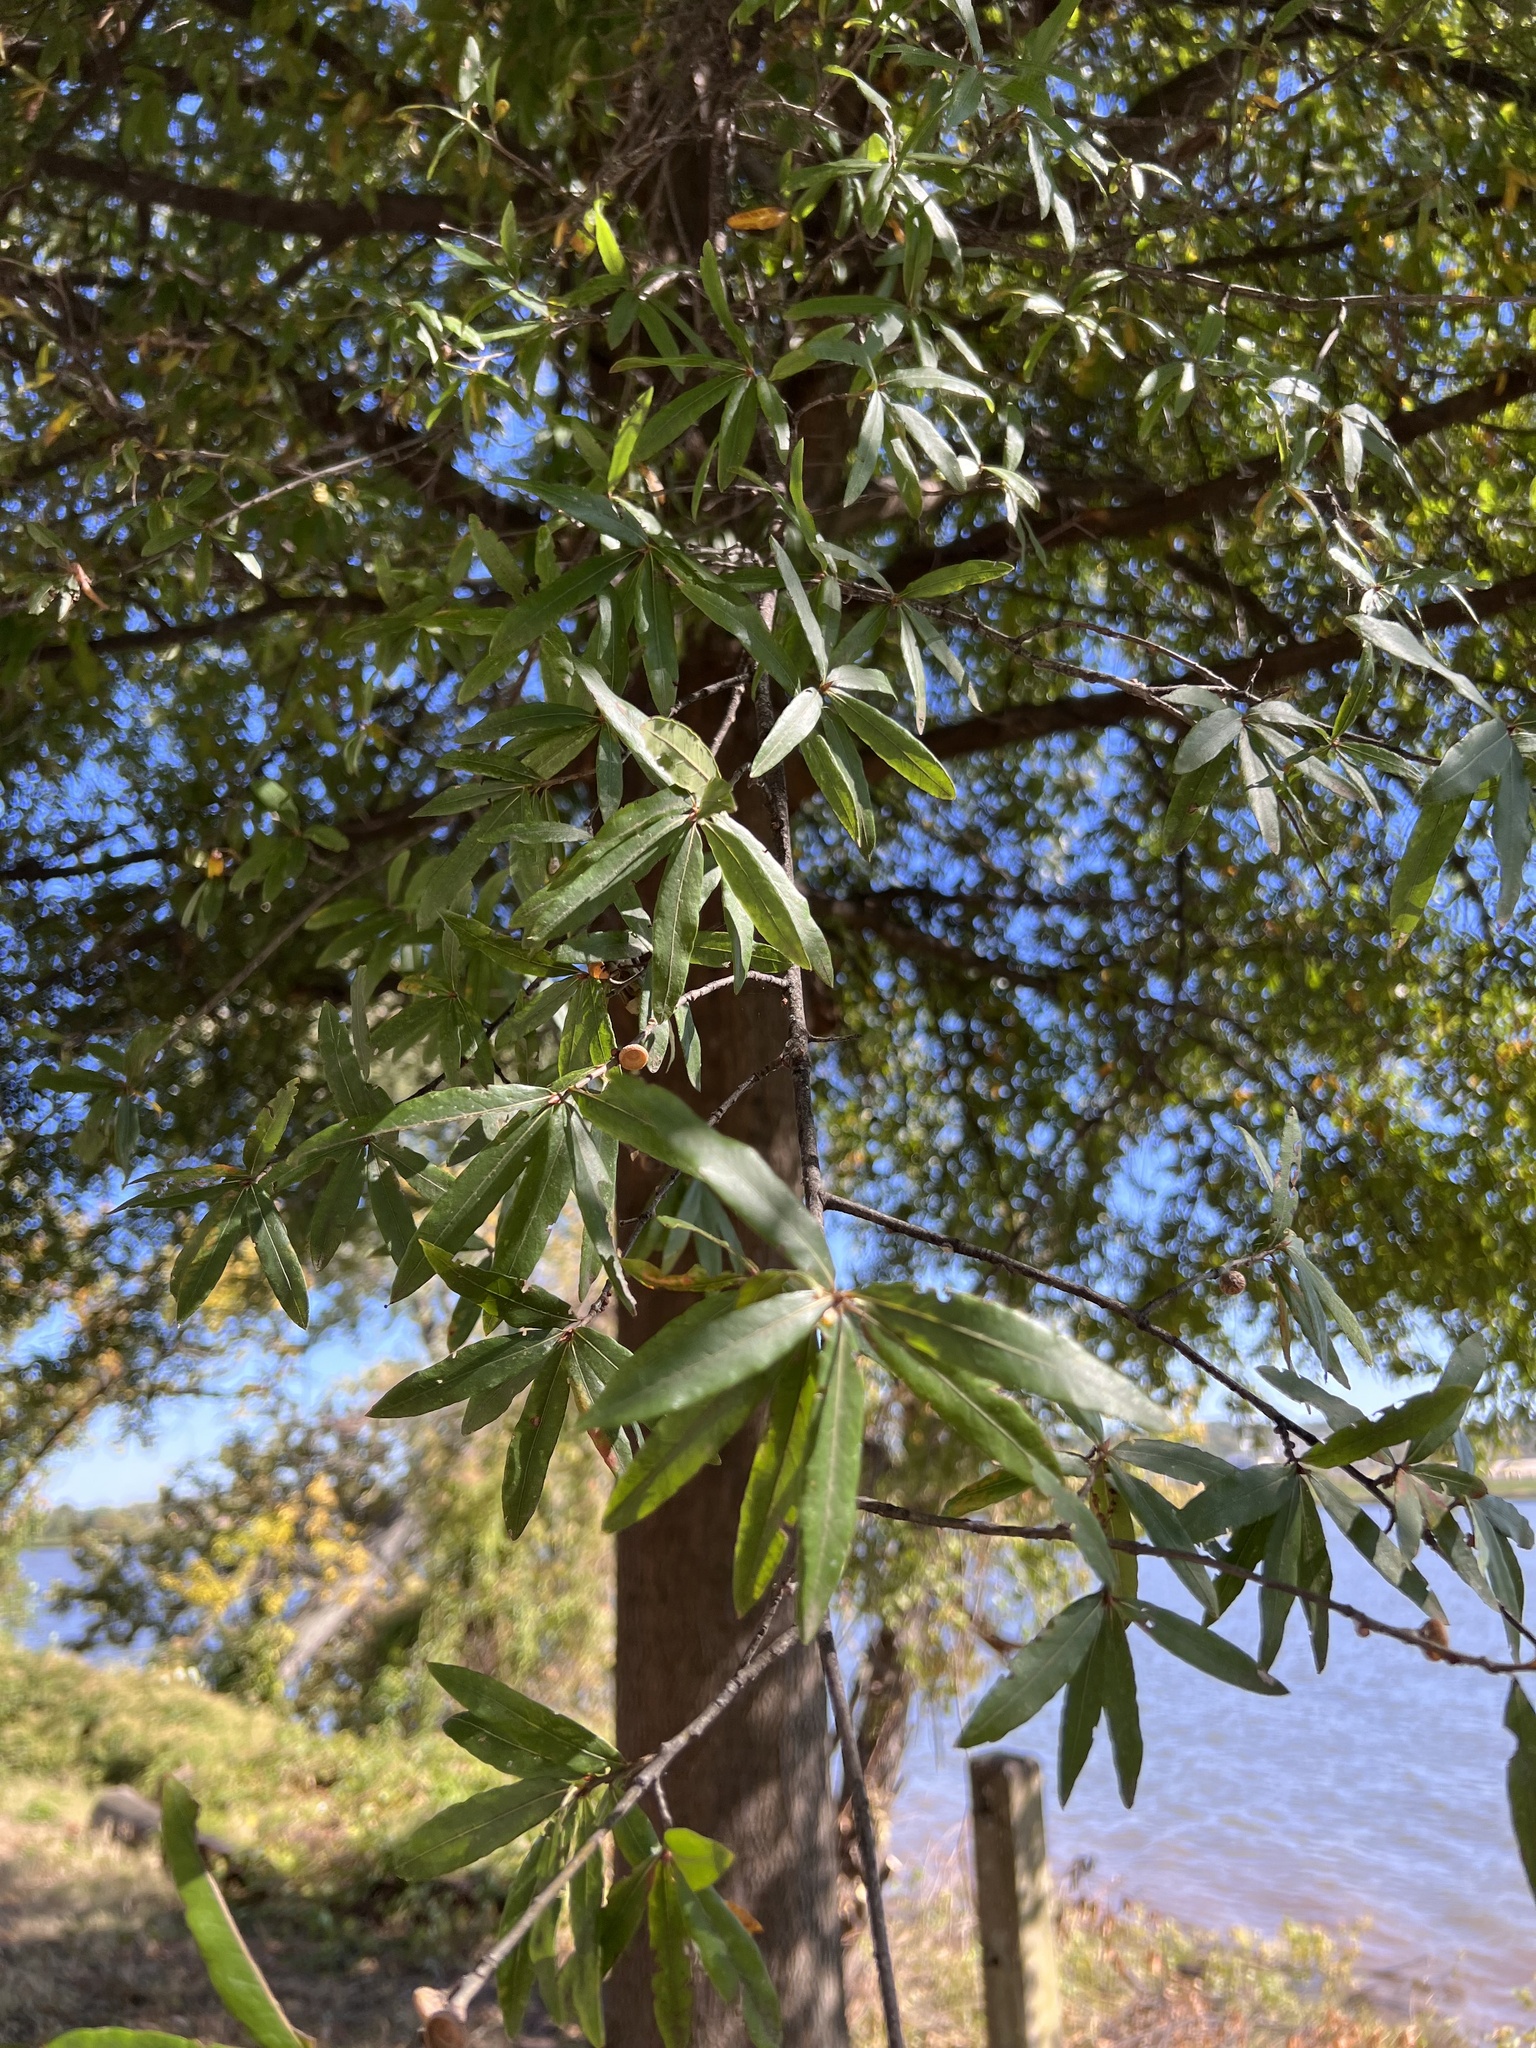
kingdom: Plantae
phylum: Tracheophyta
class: Magnoliopsida
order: Fagales
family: Fagaceae
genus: Quercus
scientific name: Quercus phellos
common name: Willow oak
